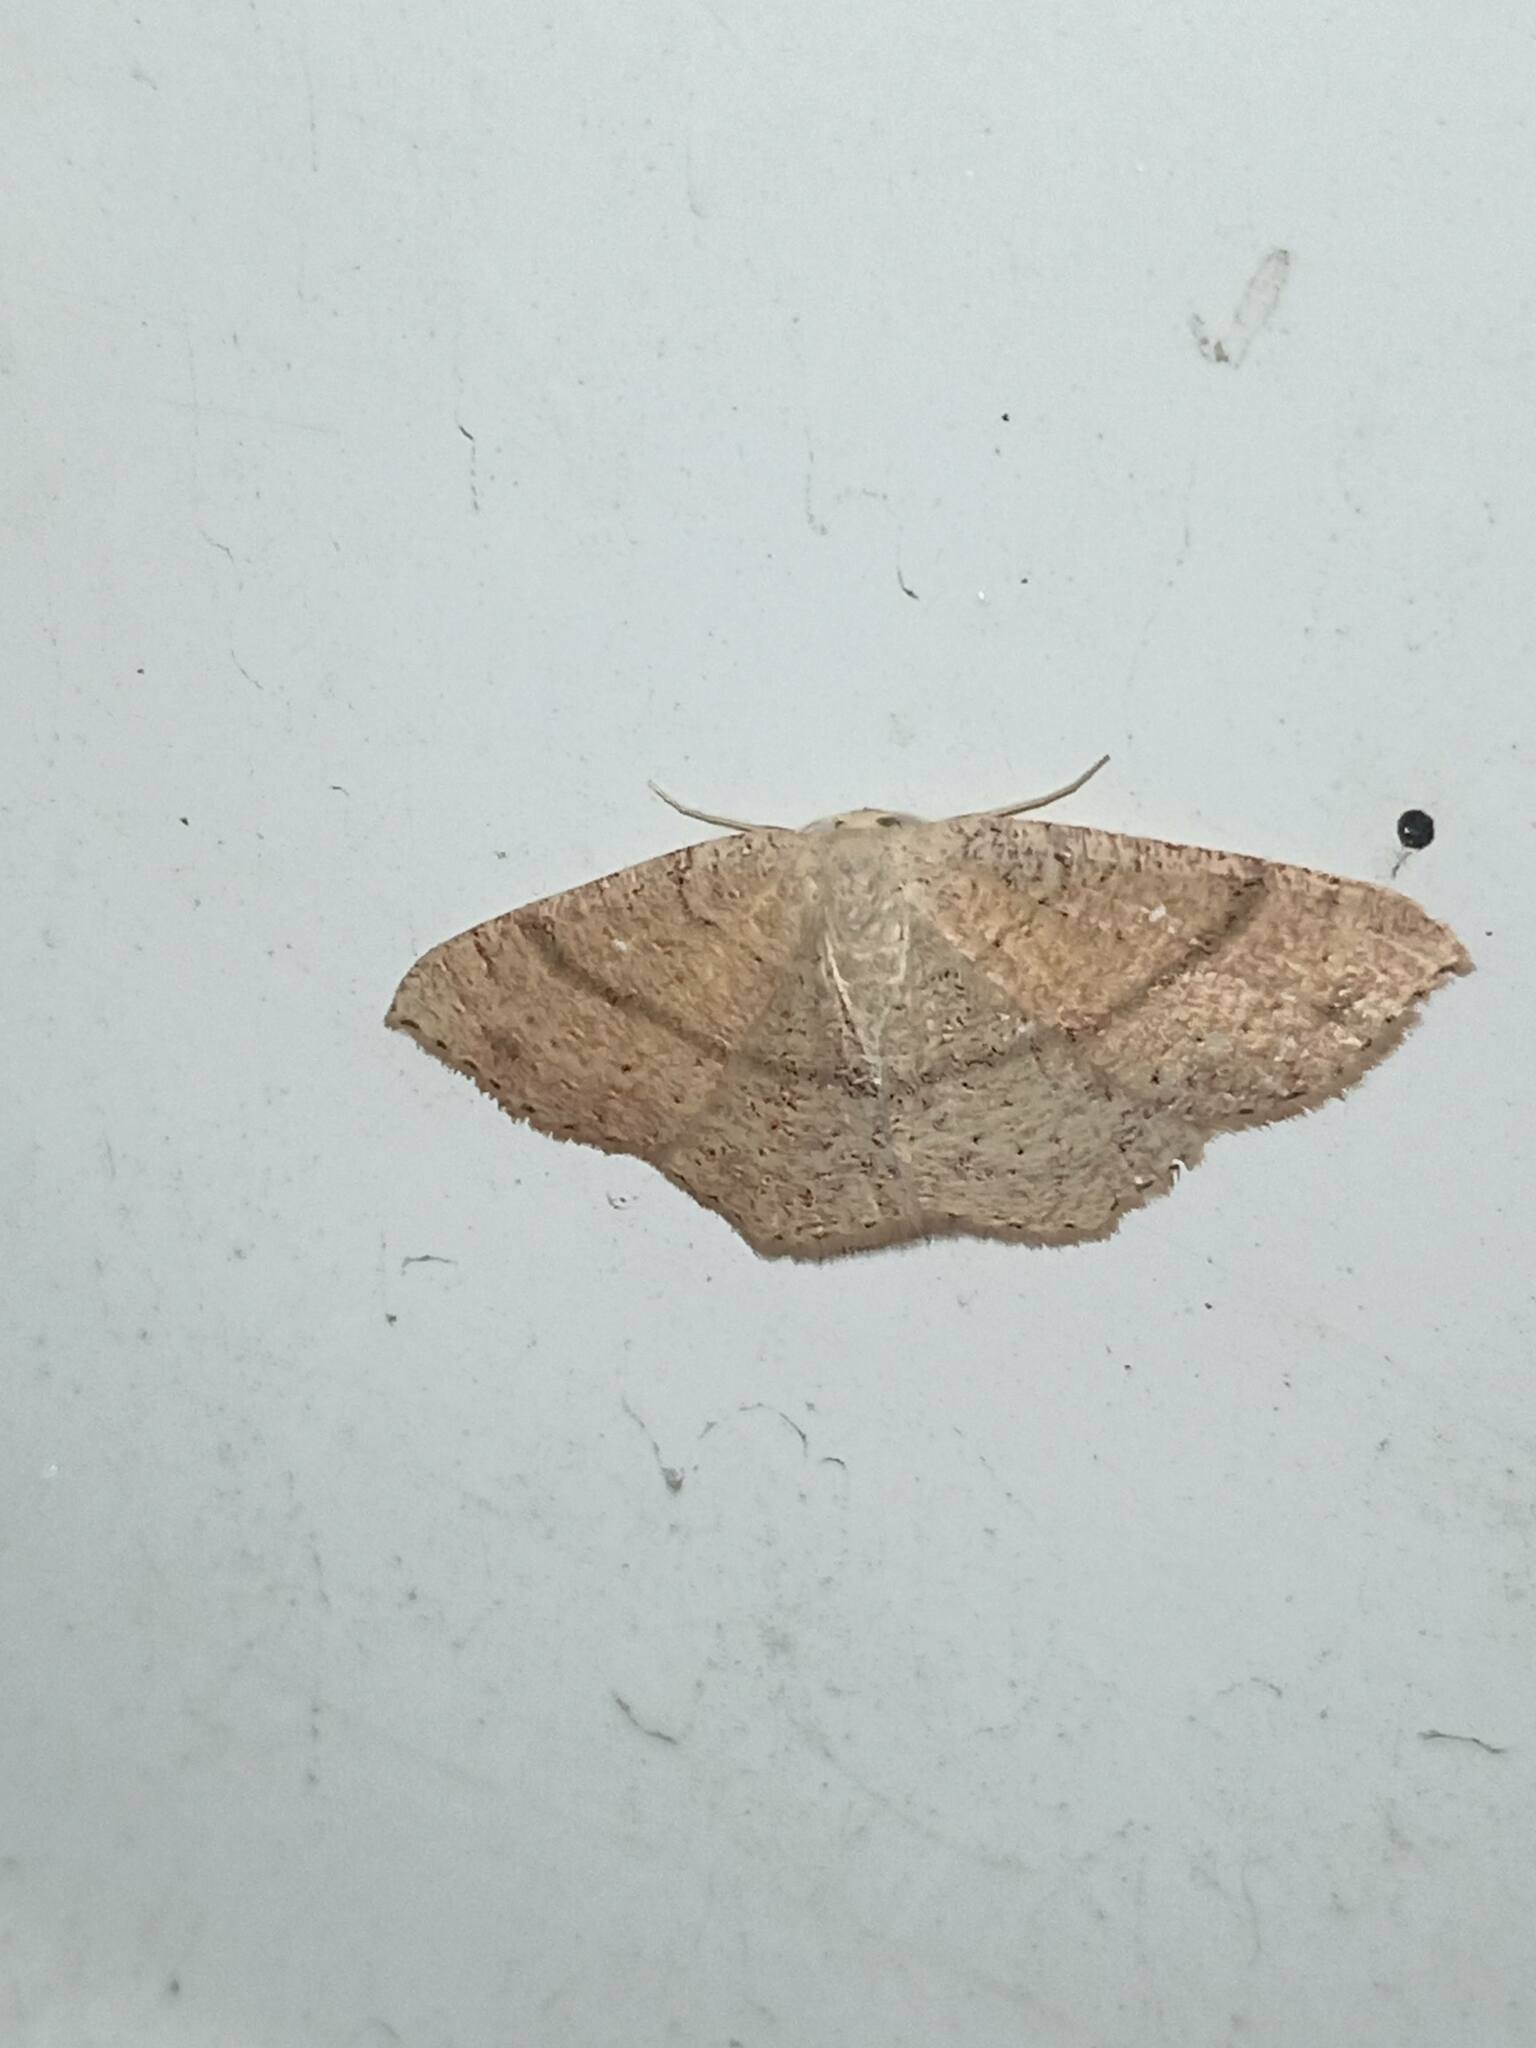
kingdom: Animalia
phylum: Arthropoda
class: Insecta
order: Lepidoptera
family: Geometridae
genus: Cyclophora
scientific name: Cyclophora ruficiliaria
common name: Jersey mocha
